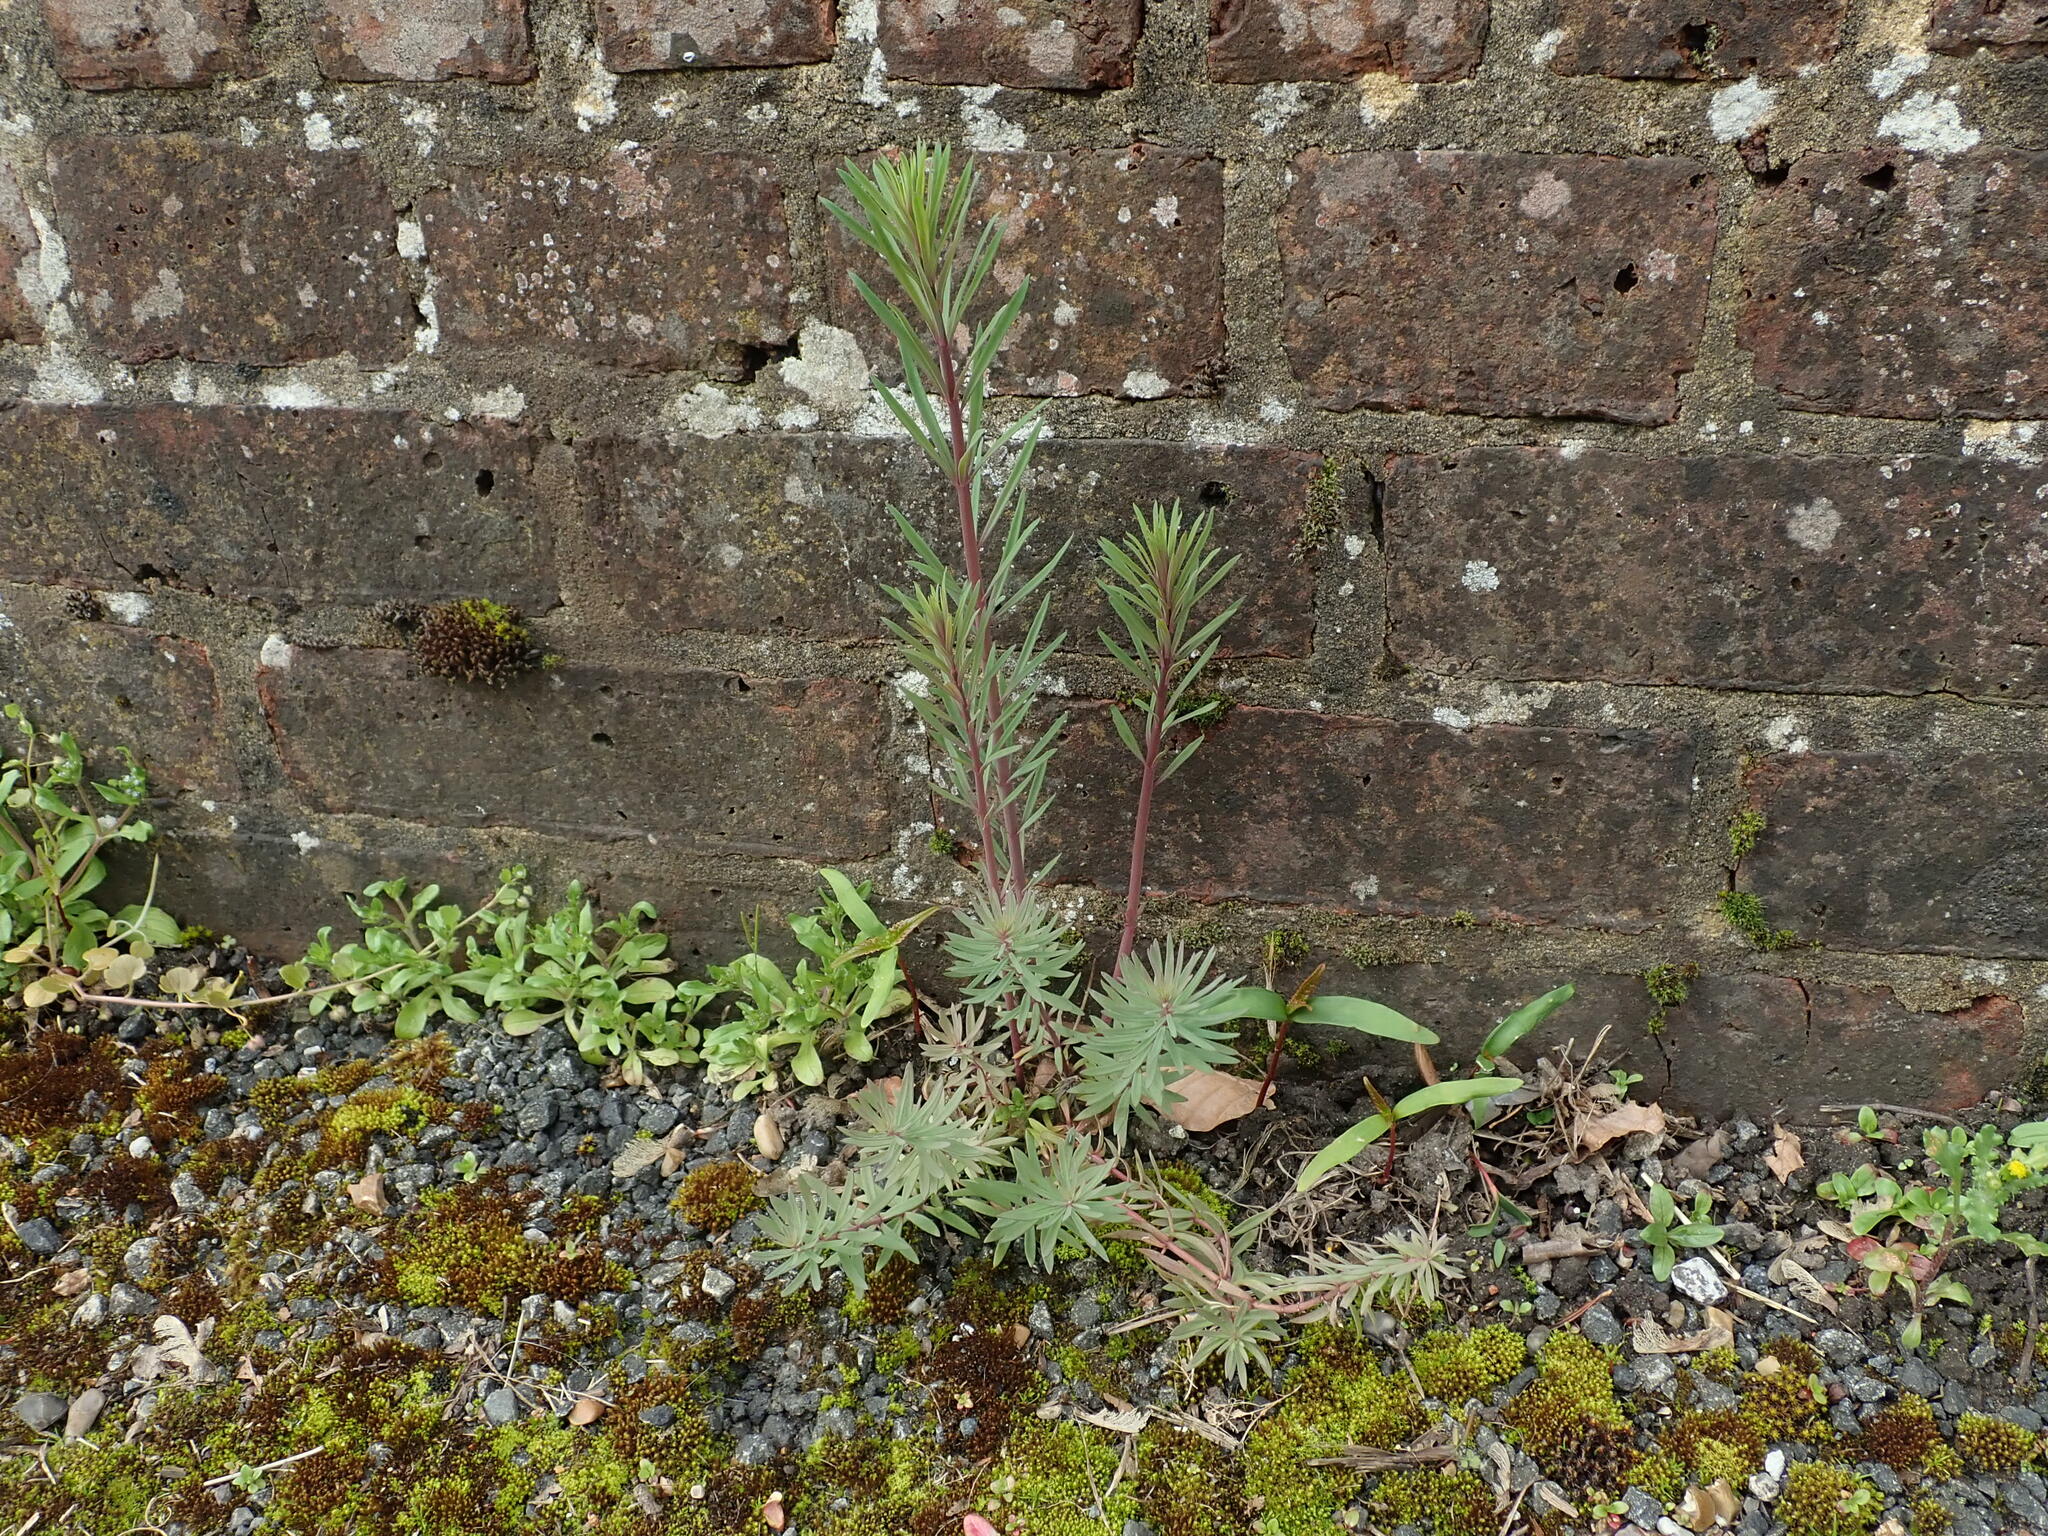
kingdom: Plantae
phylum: Tracheophyta
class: Magnoliopsida
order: Lamiales
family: Plantaginaceae
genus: Linaria
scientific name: Linaria purpurea
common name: Purple toadflax
